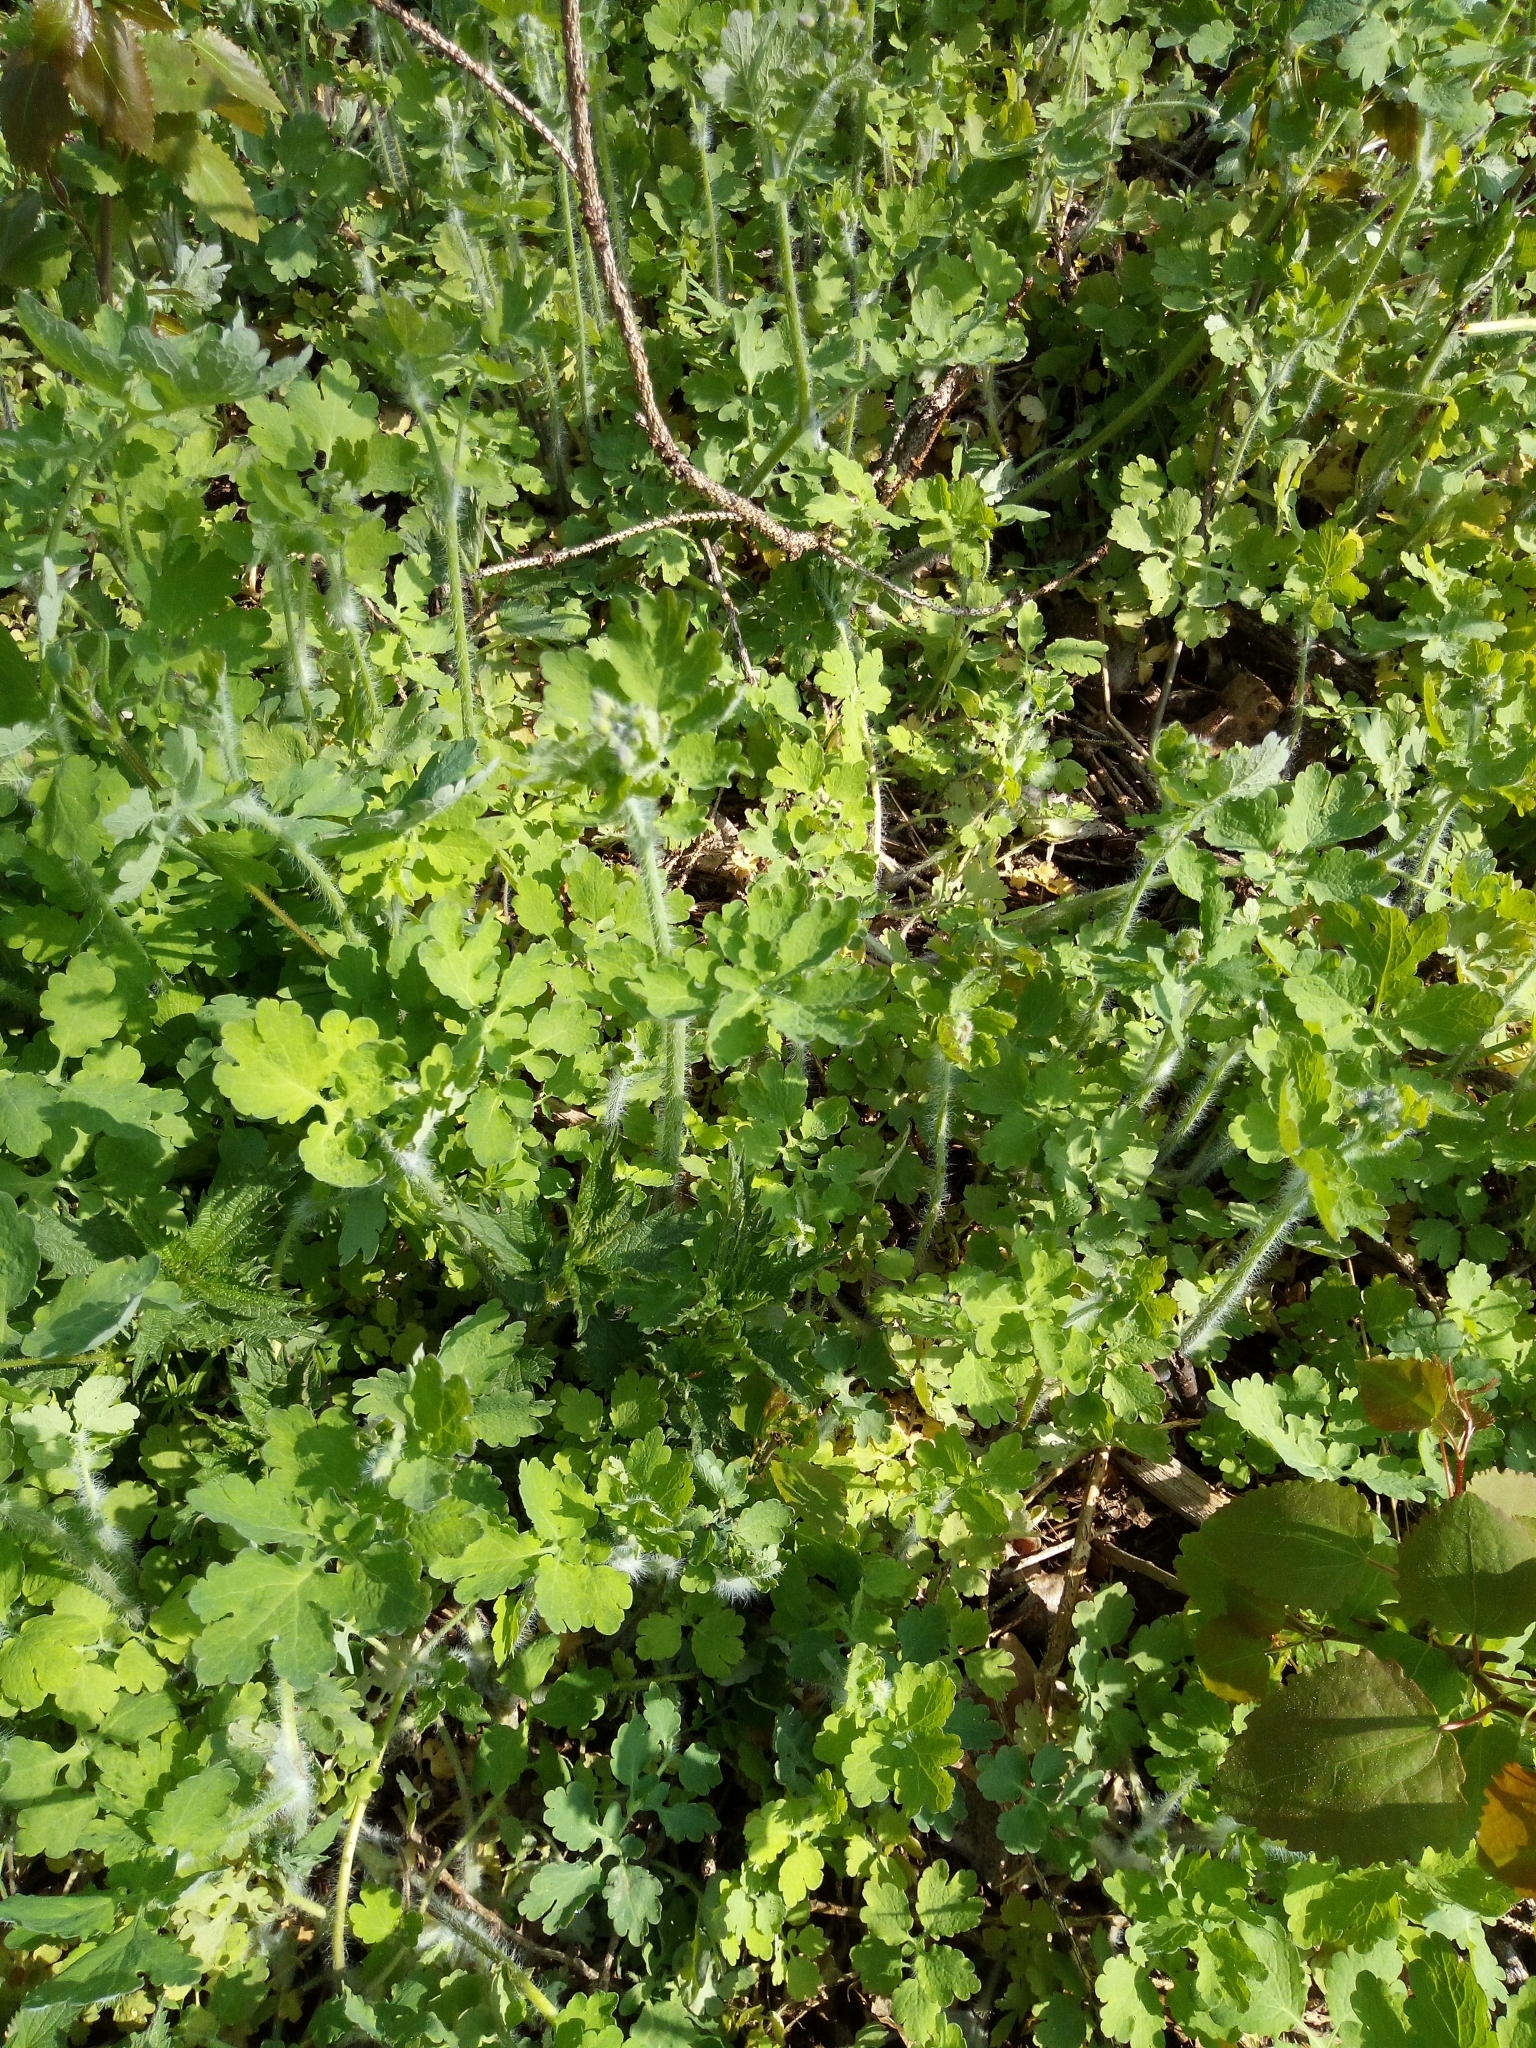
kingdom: Plantae
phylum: Tracheophyta
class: Magnoliopsida
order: Ranunculales
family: Papaveraceae
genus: Chelidonium
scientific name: Chelidonium majus
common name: Greater celandine
